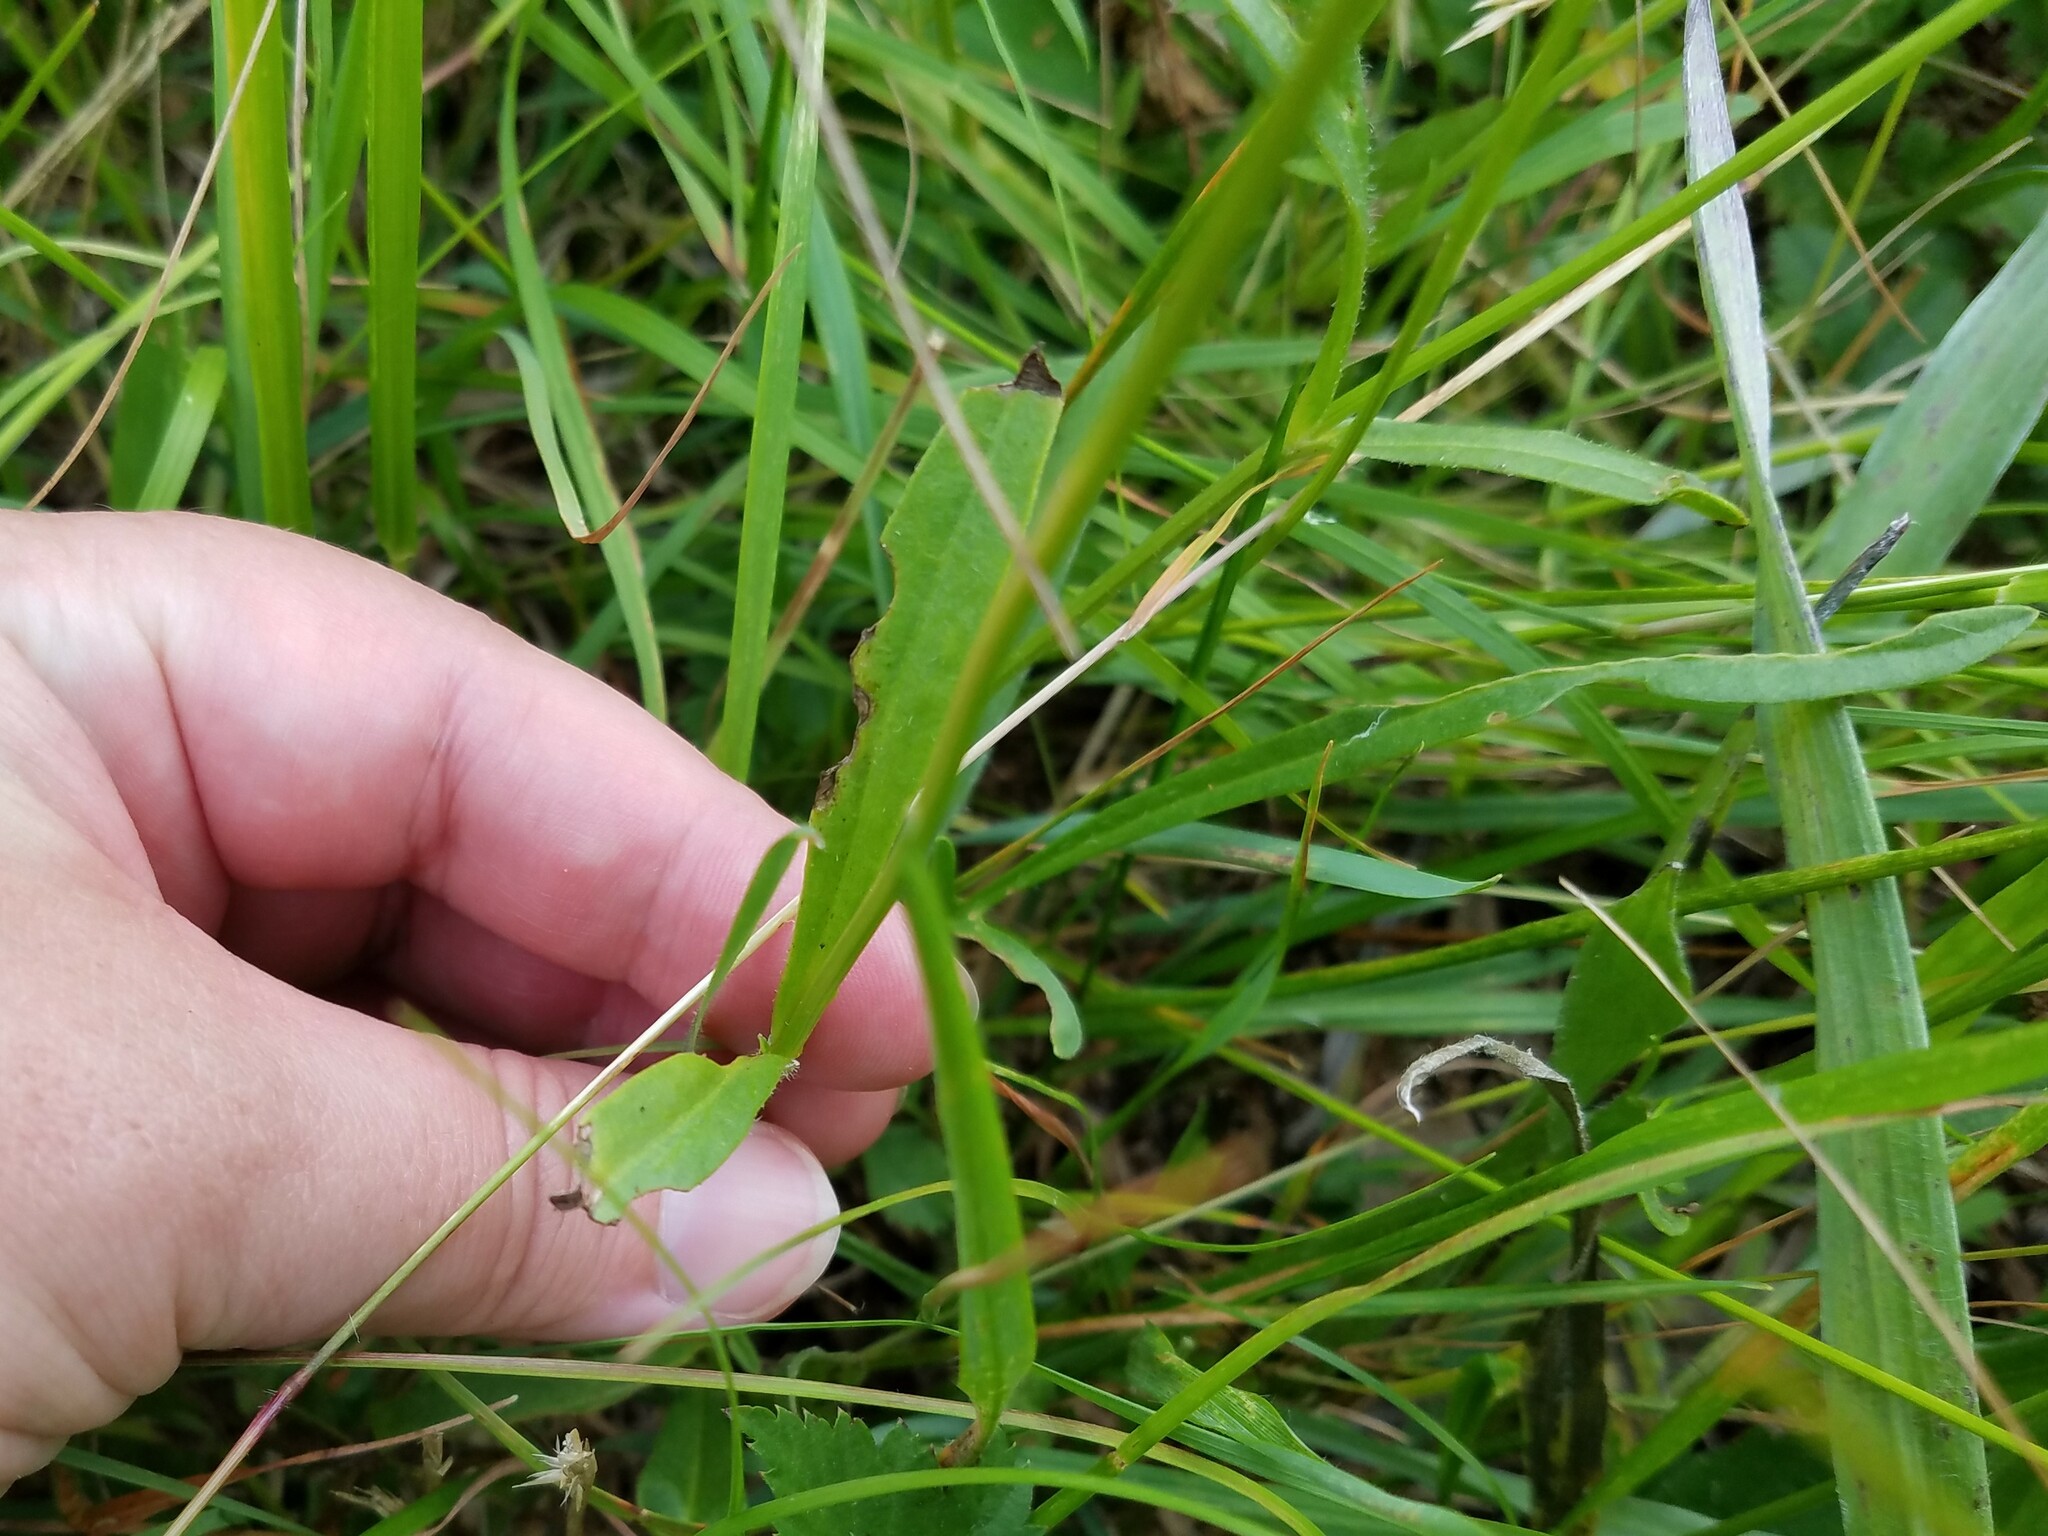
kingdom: Plantae
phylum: Tracheophyta
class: Magnoliopsida
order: Asterales
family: Asteraceae
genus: Coreopsis
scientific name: Coreopsis lanceolata
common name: Garden coreopsis
